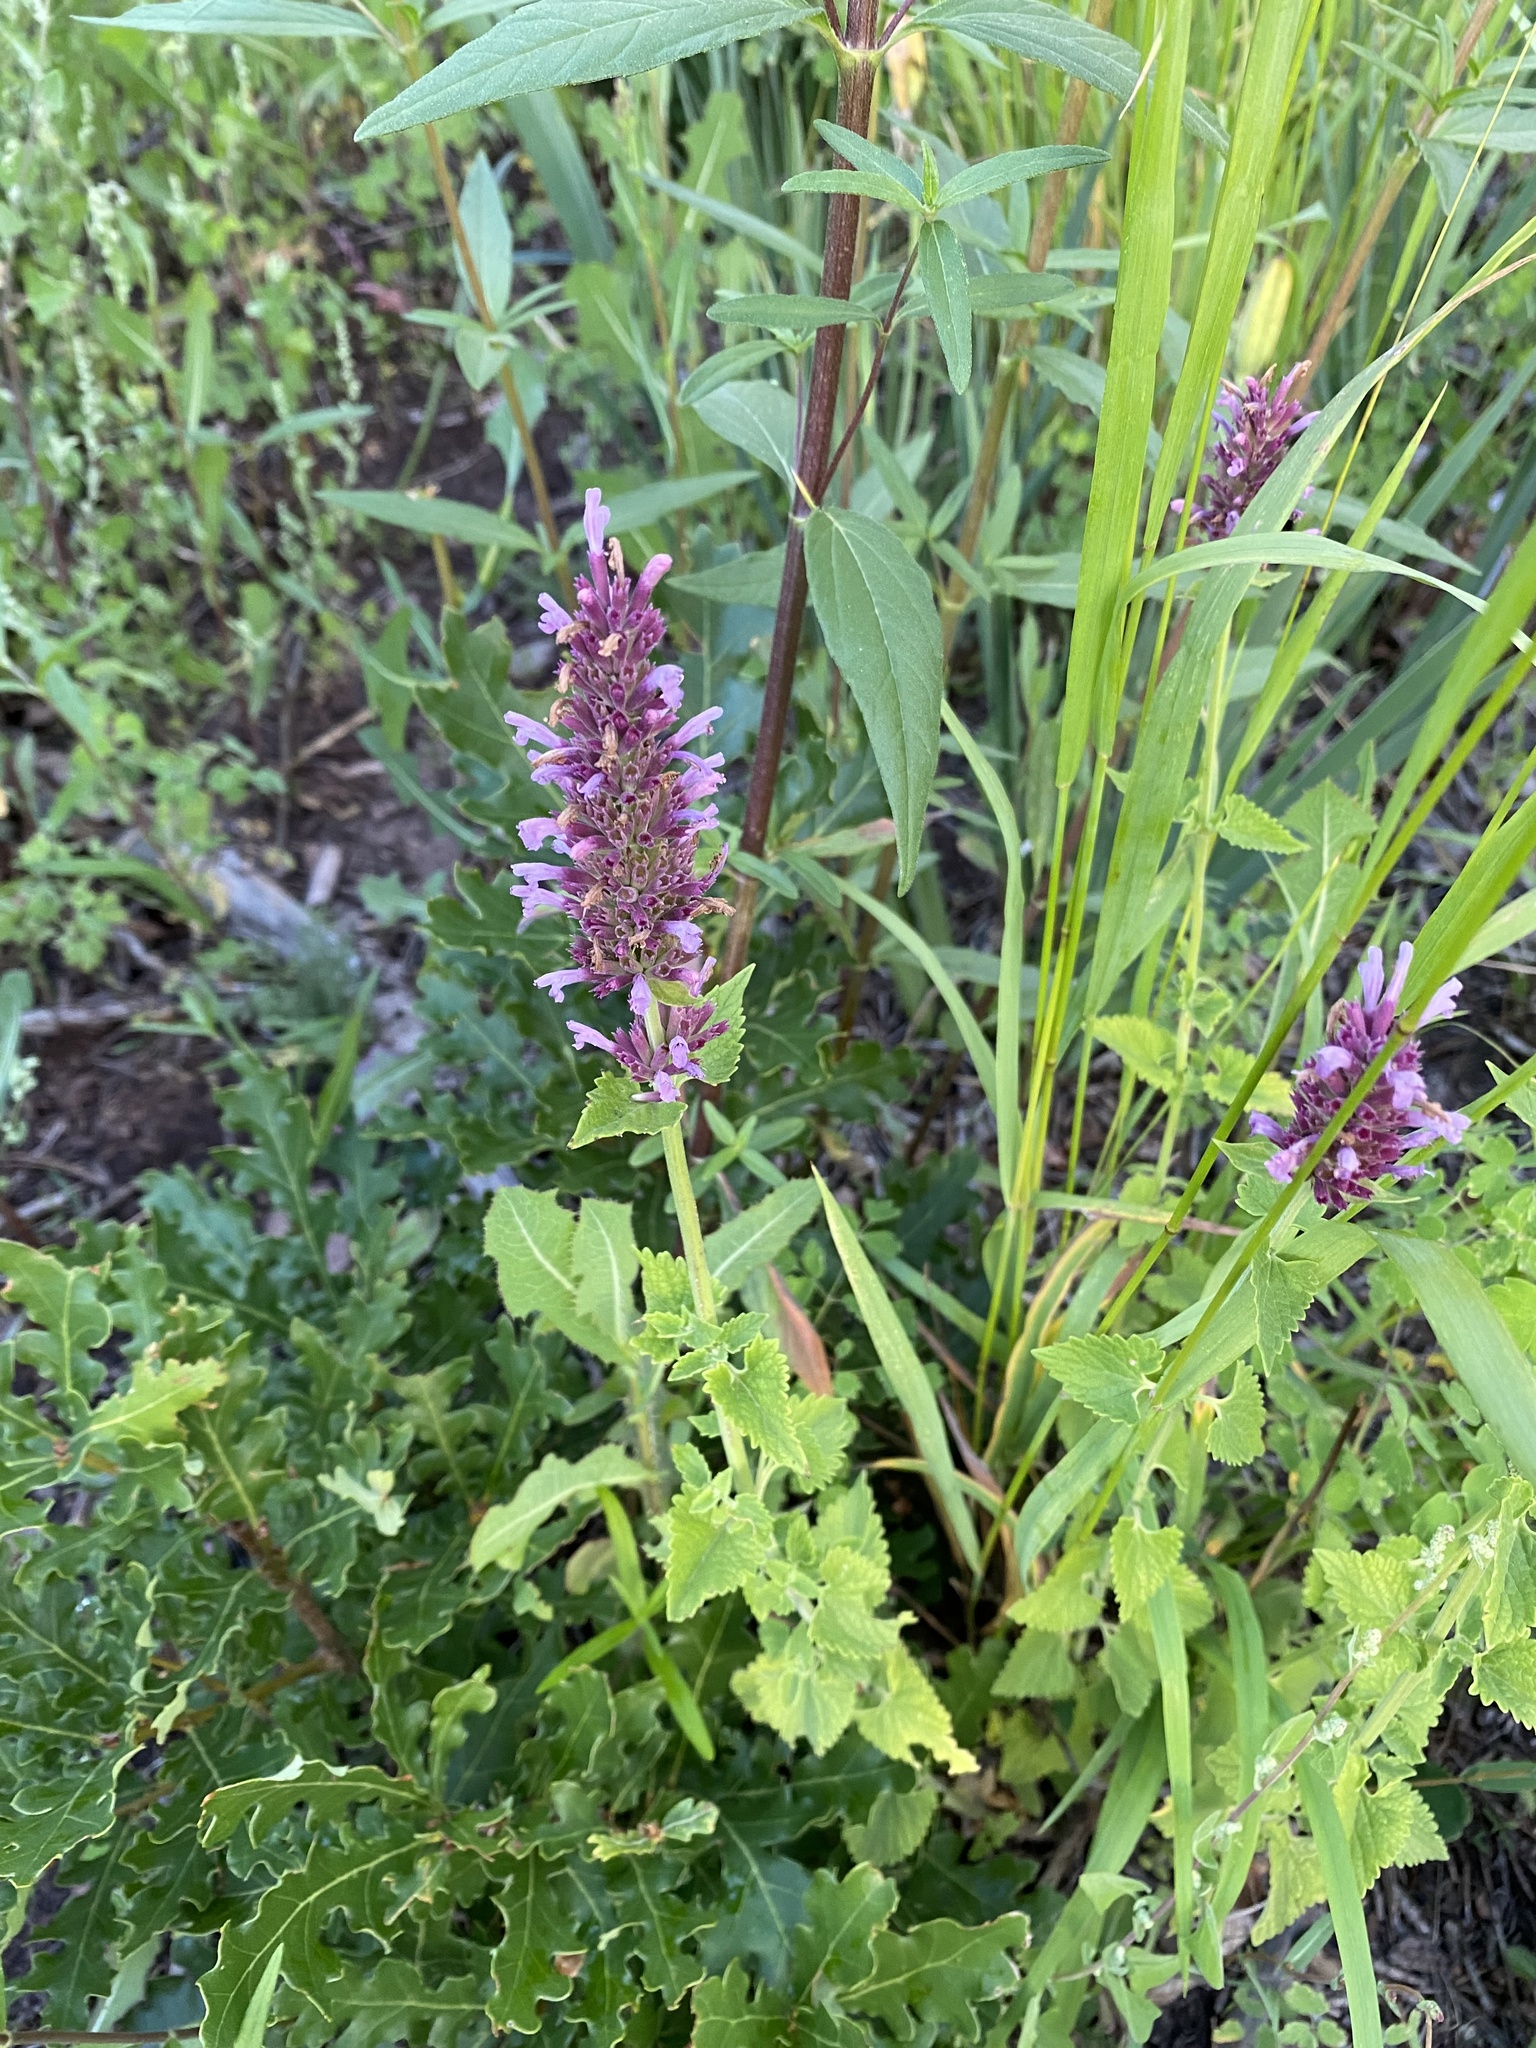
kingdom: Plantae
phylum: Tracheophyta
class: Magnoliopsida
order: Lamiales
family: Lamiaceae
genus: Agastache
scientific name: Agastache pallidiflora
